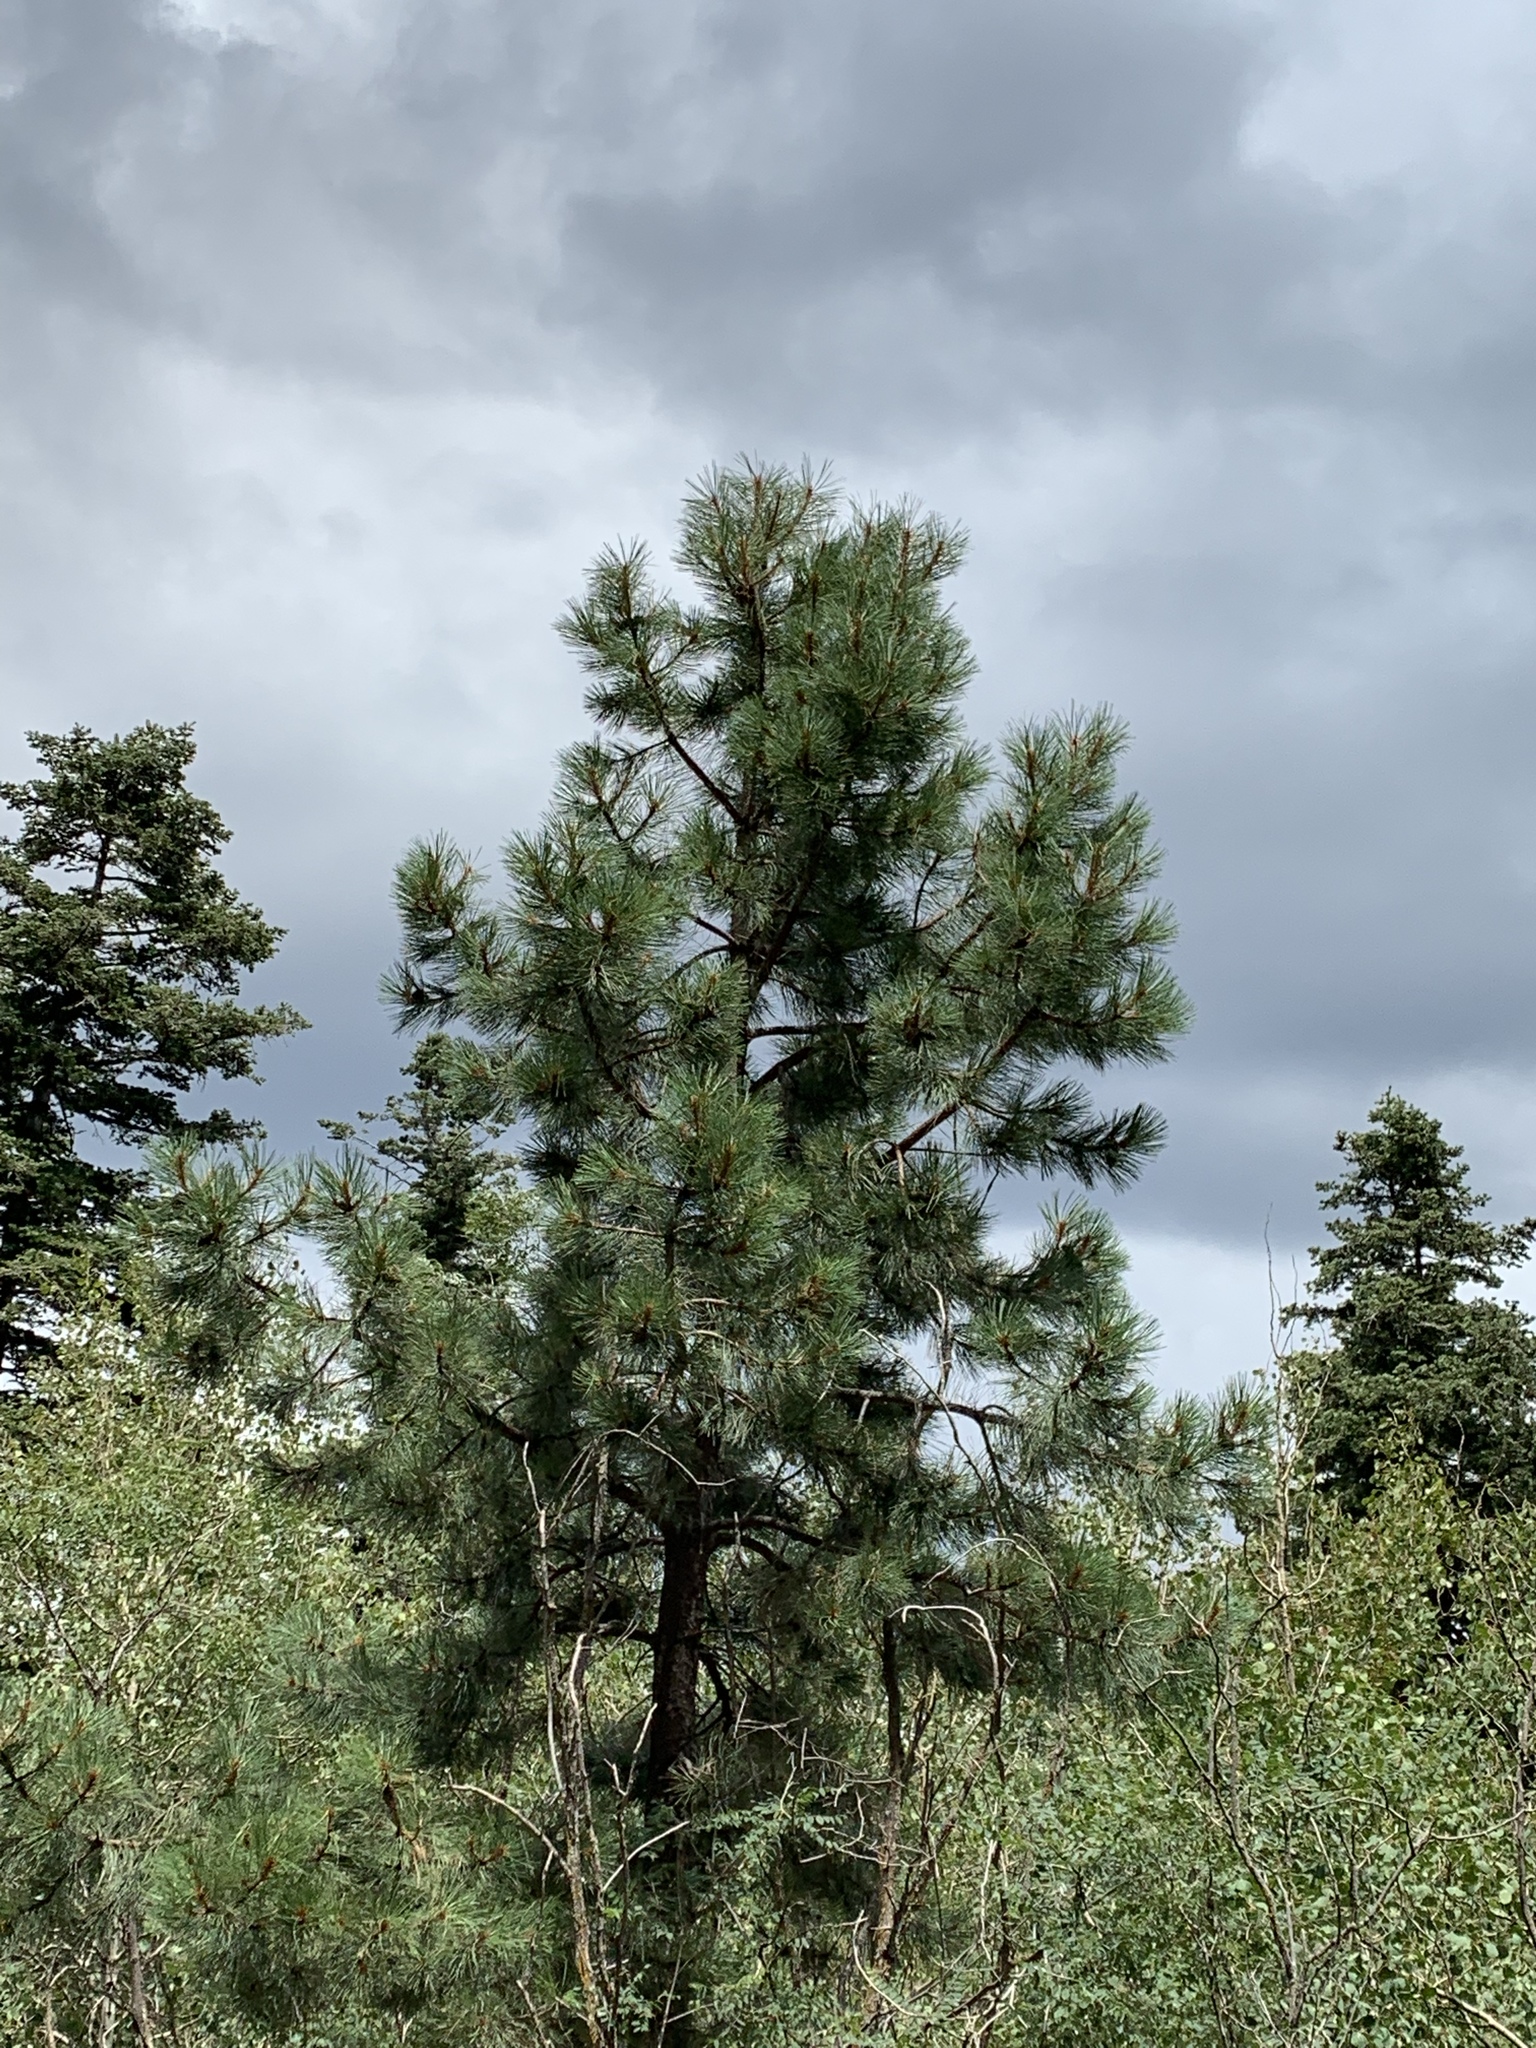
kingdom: Plantae
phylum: Tracheophyta
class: Pinopsida
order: Pinales
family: Pinaceae
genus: Pinus
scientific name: Pinus ponderosa
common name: Western yellow-pine
